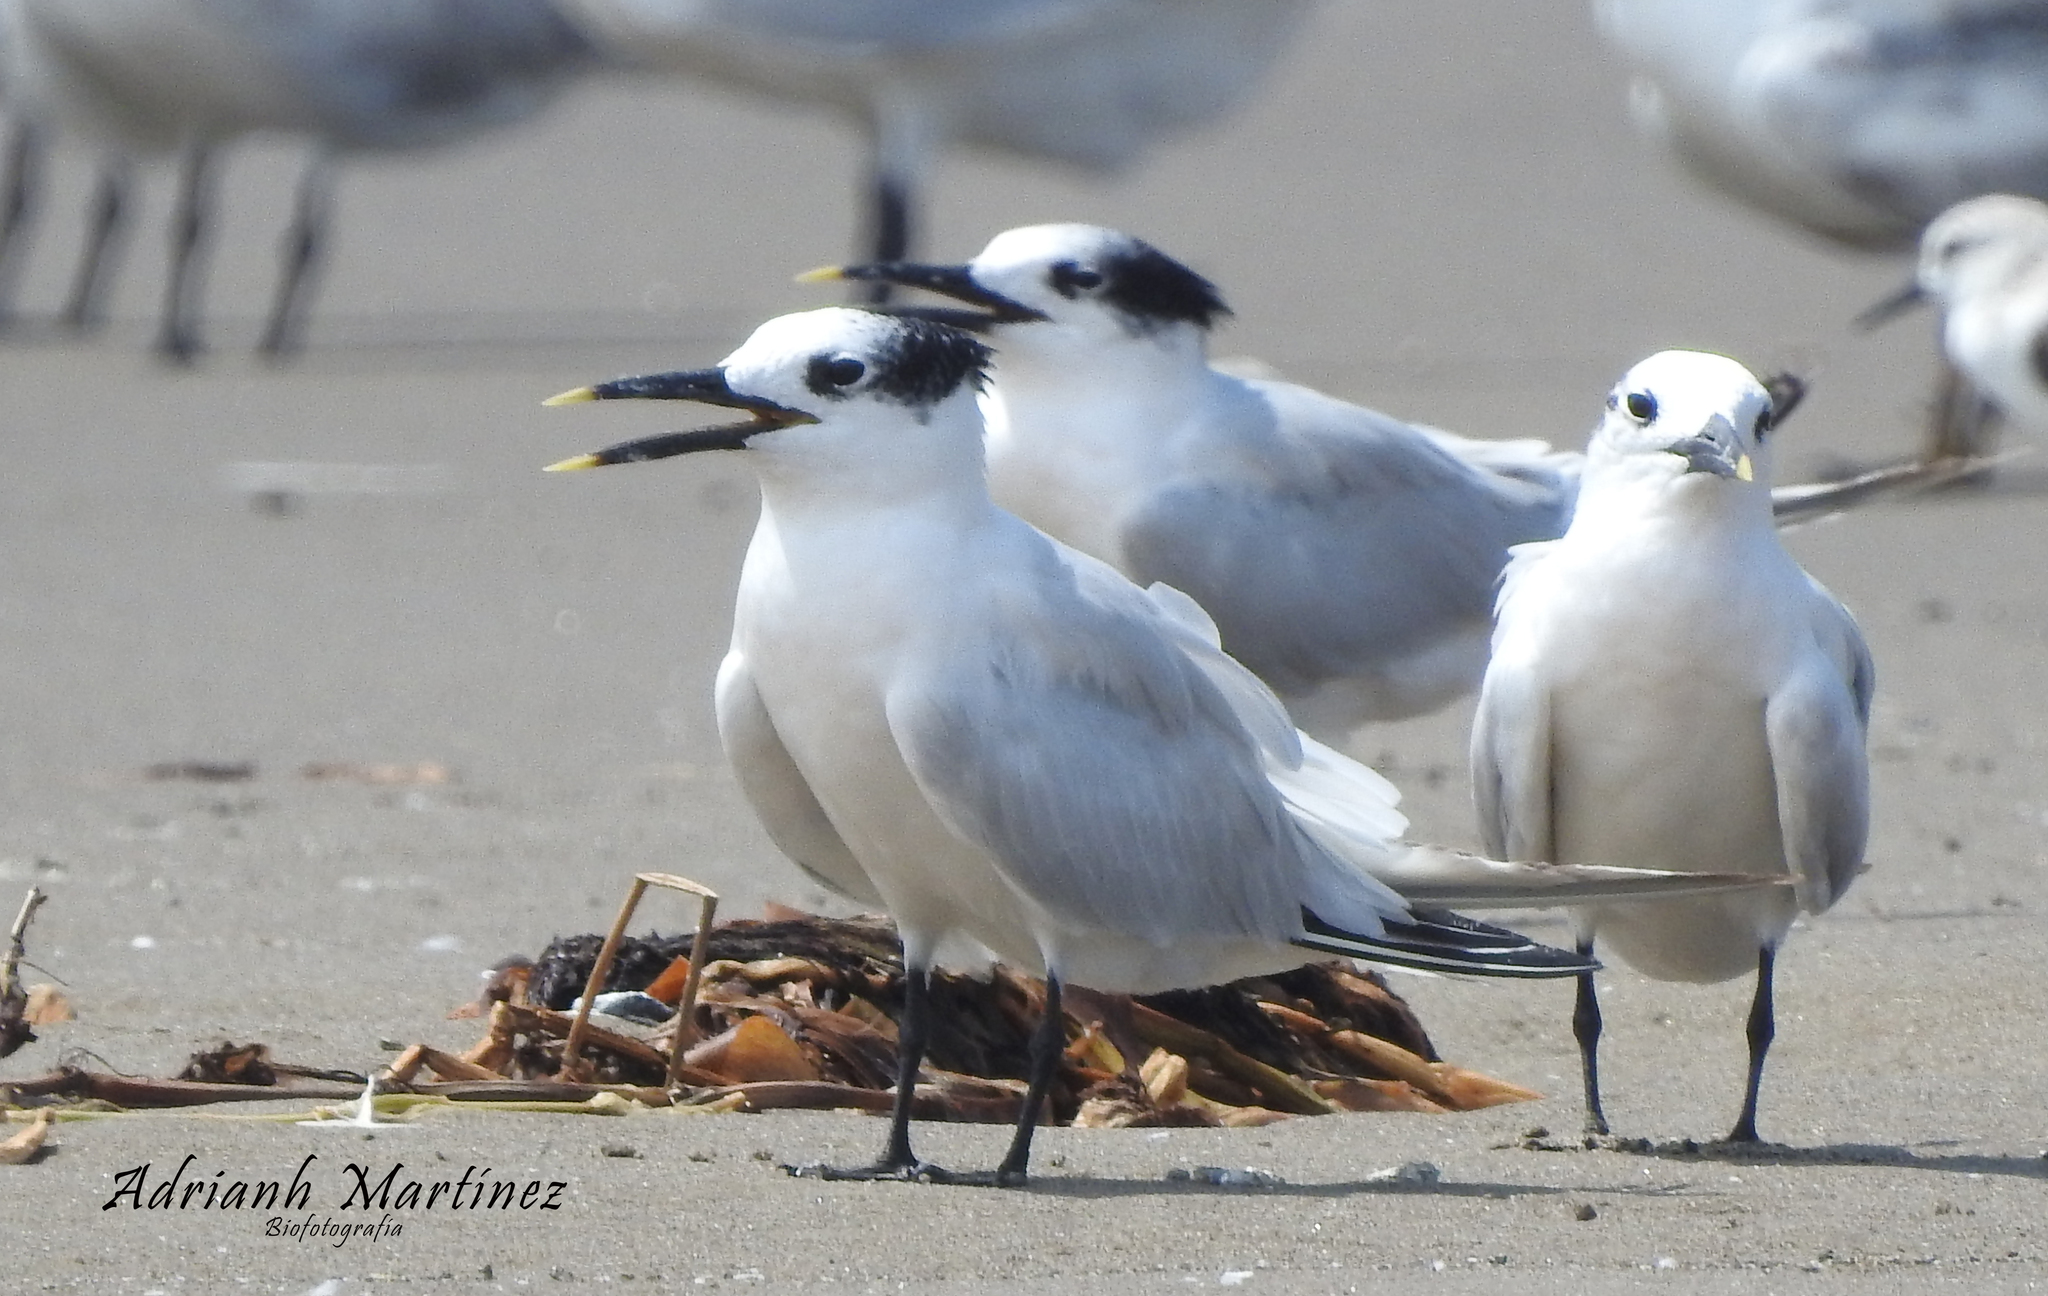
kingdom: Animalia
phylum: Chordata
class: Aves
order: Charadriiformes
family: Laridae
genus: Thalasseus
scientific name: Thalasseus sandvicensis
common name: Sandwich tern
